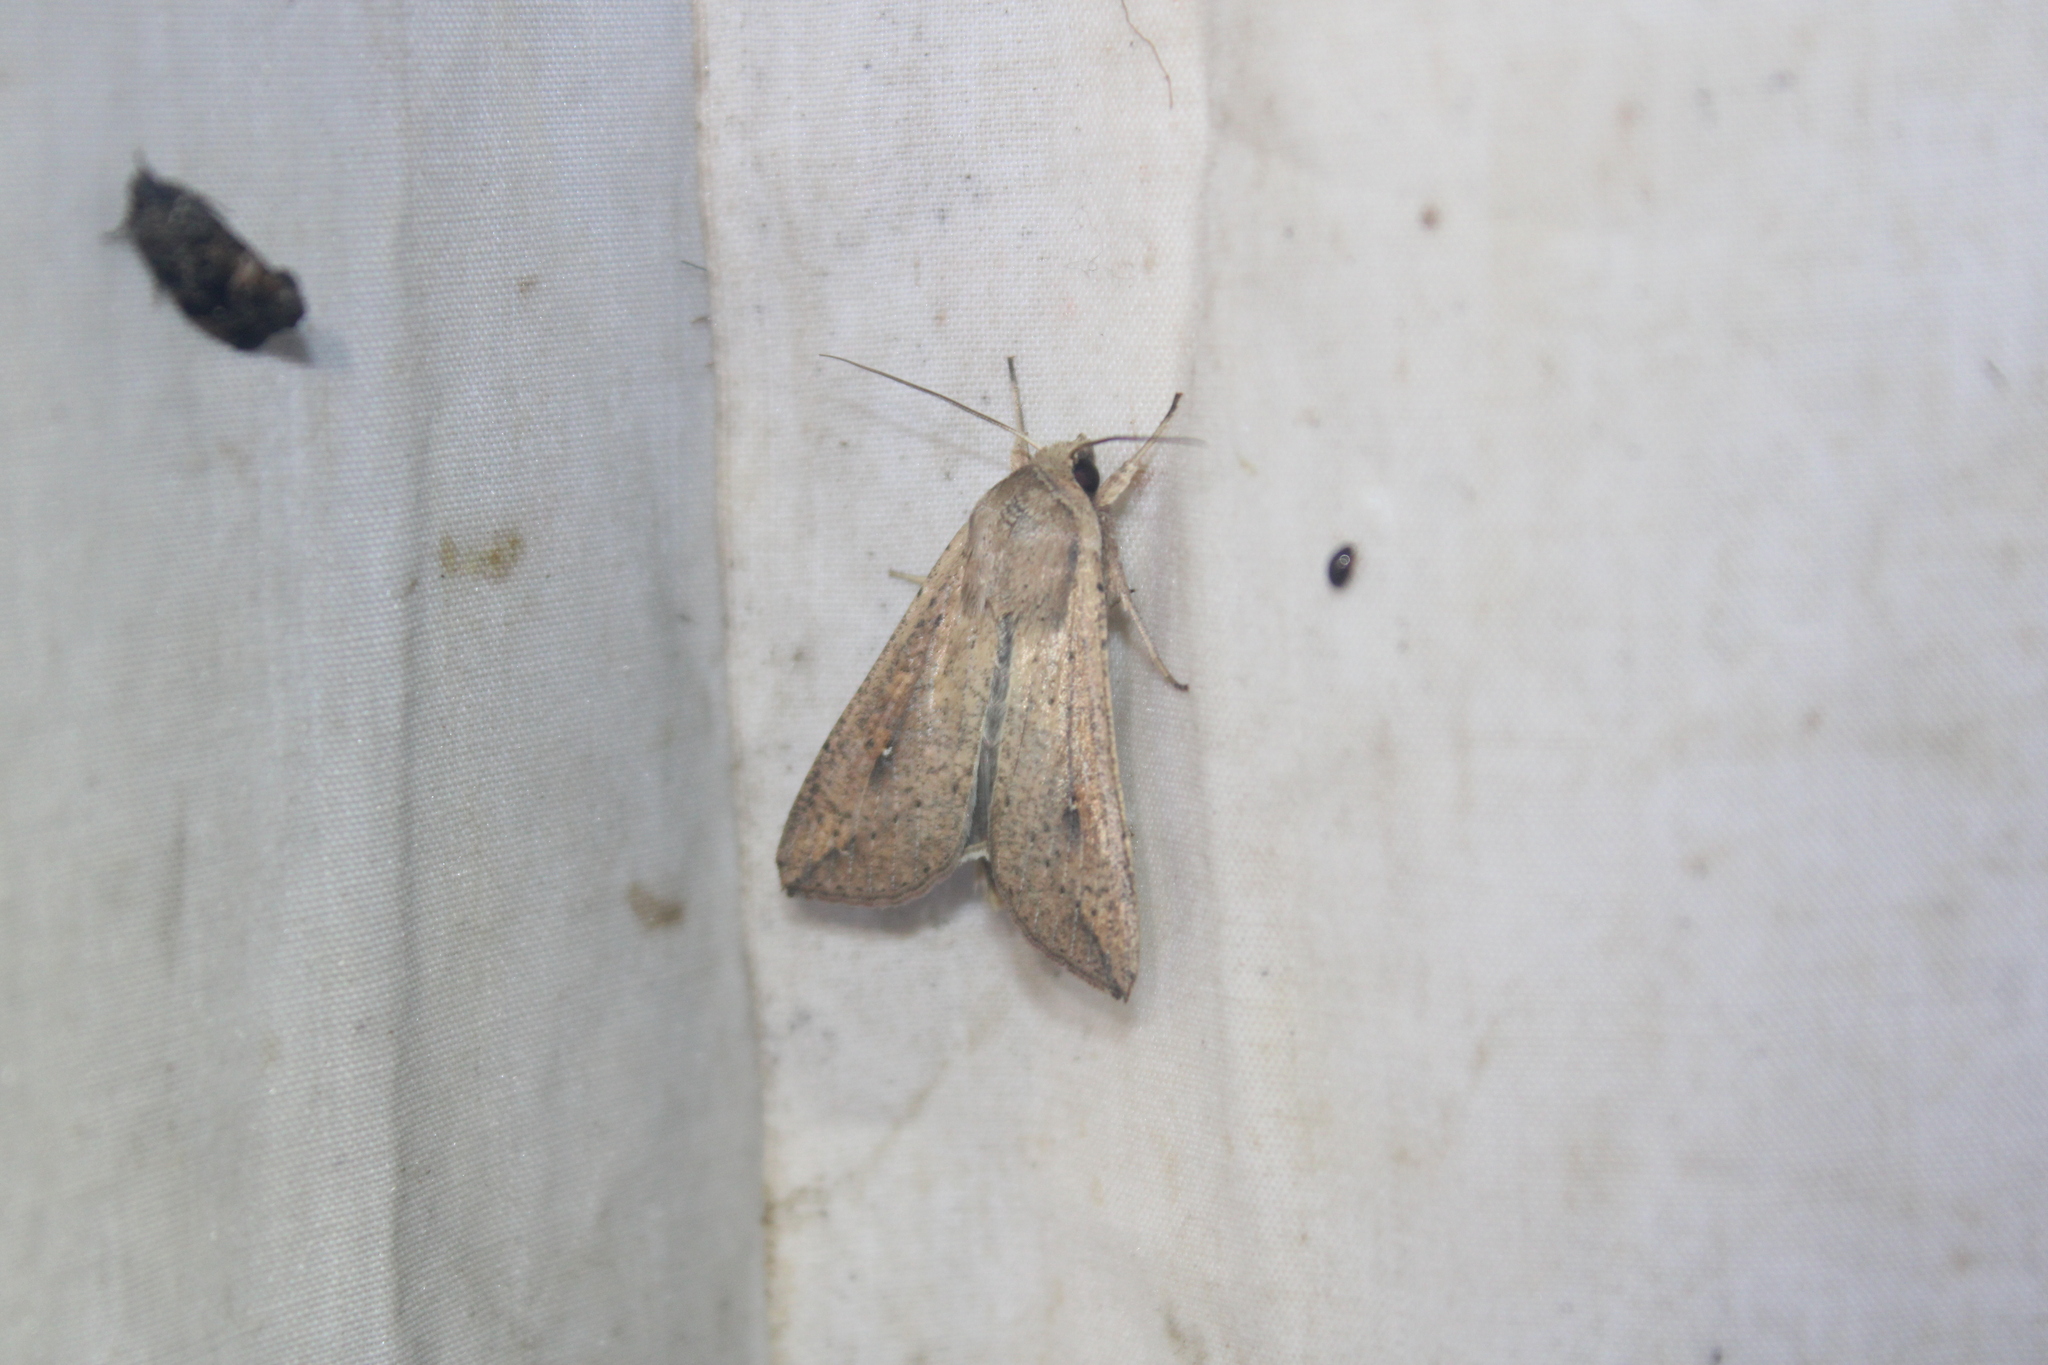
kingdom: Animalia
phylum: Arthropoda
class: Insecta
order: Lepidoptera
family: Noctuidae
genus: Mythimna
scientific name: Mythimna unipuncta
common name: White-speck
